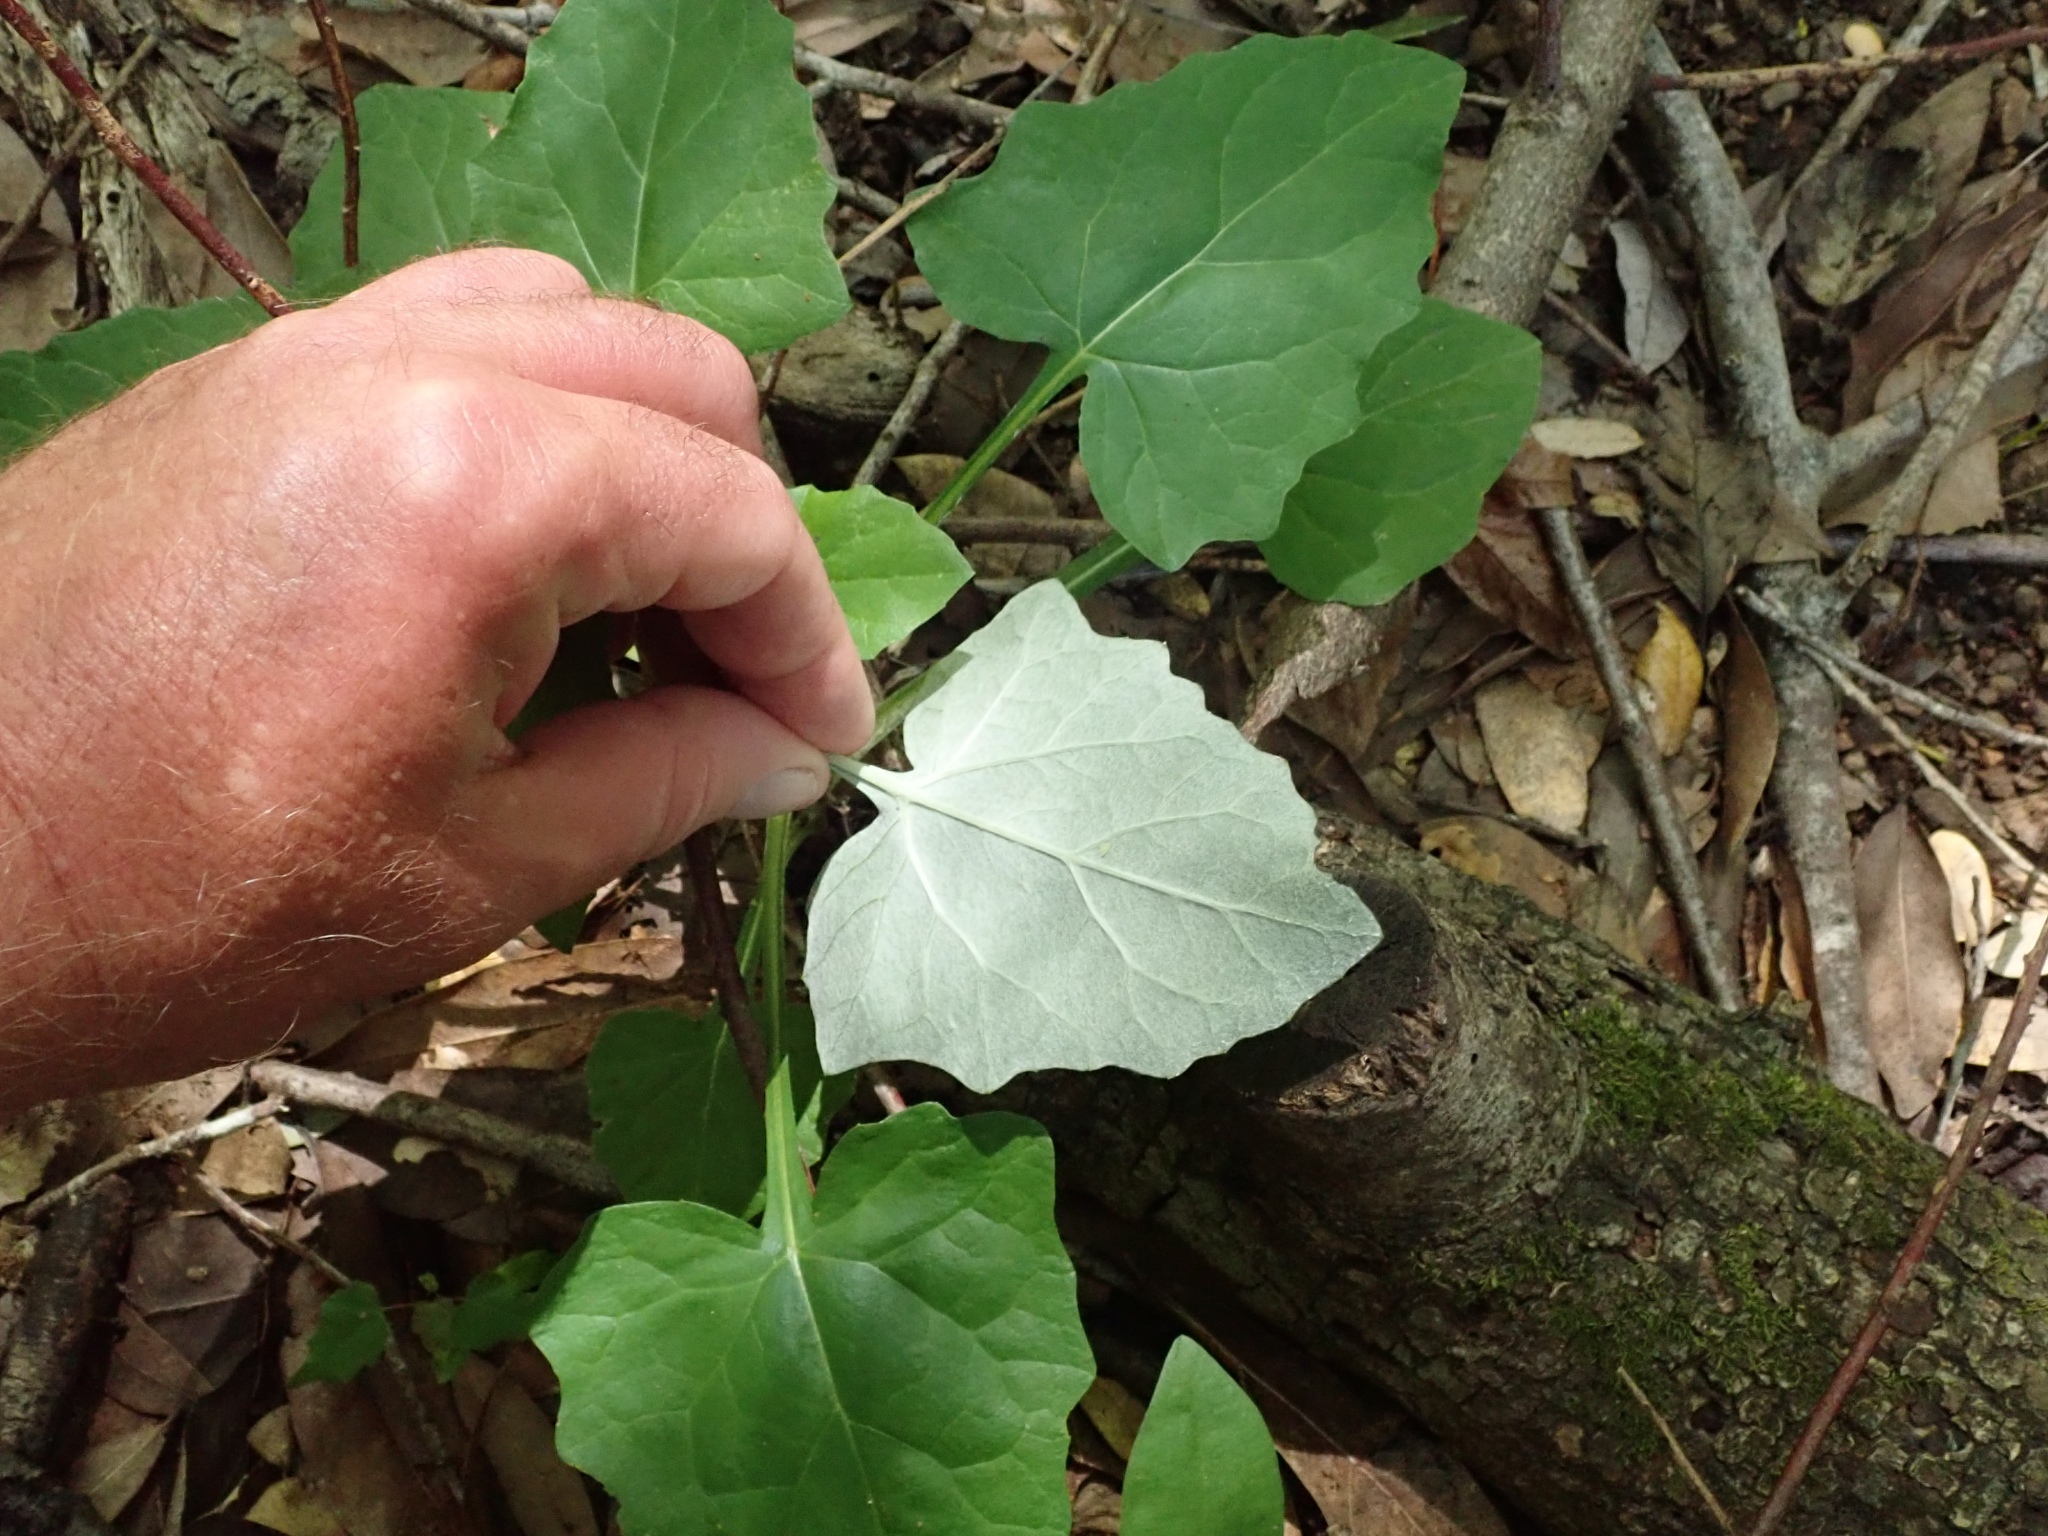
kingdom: Plantae
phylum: Tracheophyta
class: Magnoliopsida
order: Asterales
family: Asteraceae
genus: Adenocaulon
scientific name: Adenocaulon bicolor
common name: Trailplant
